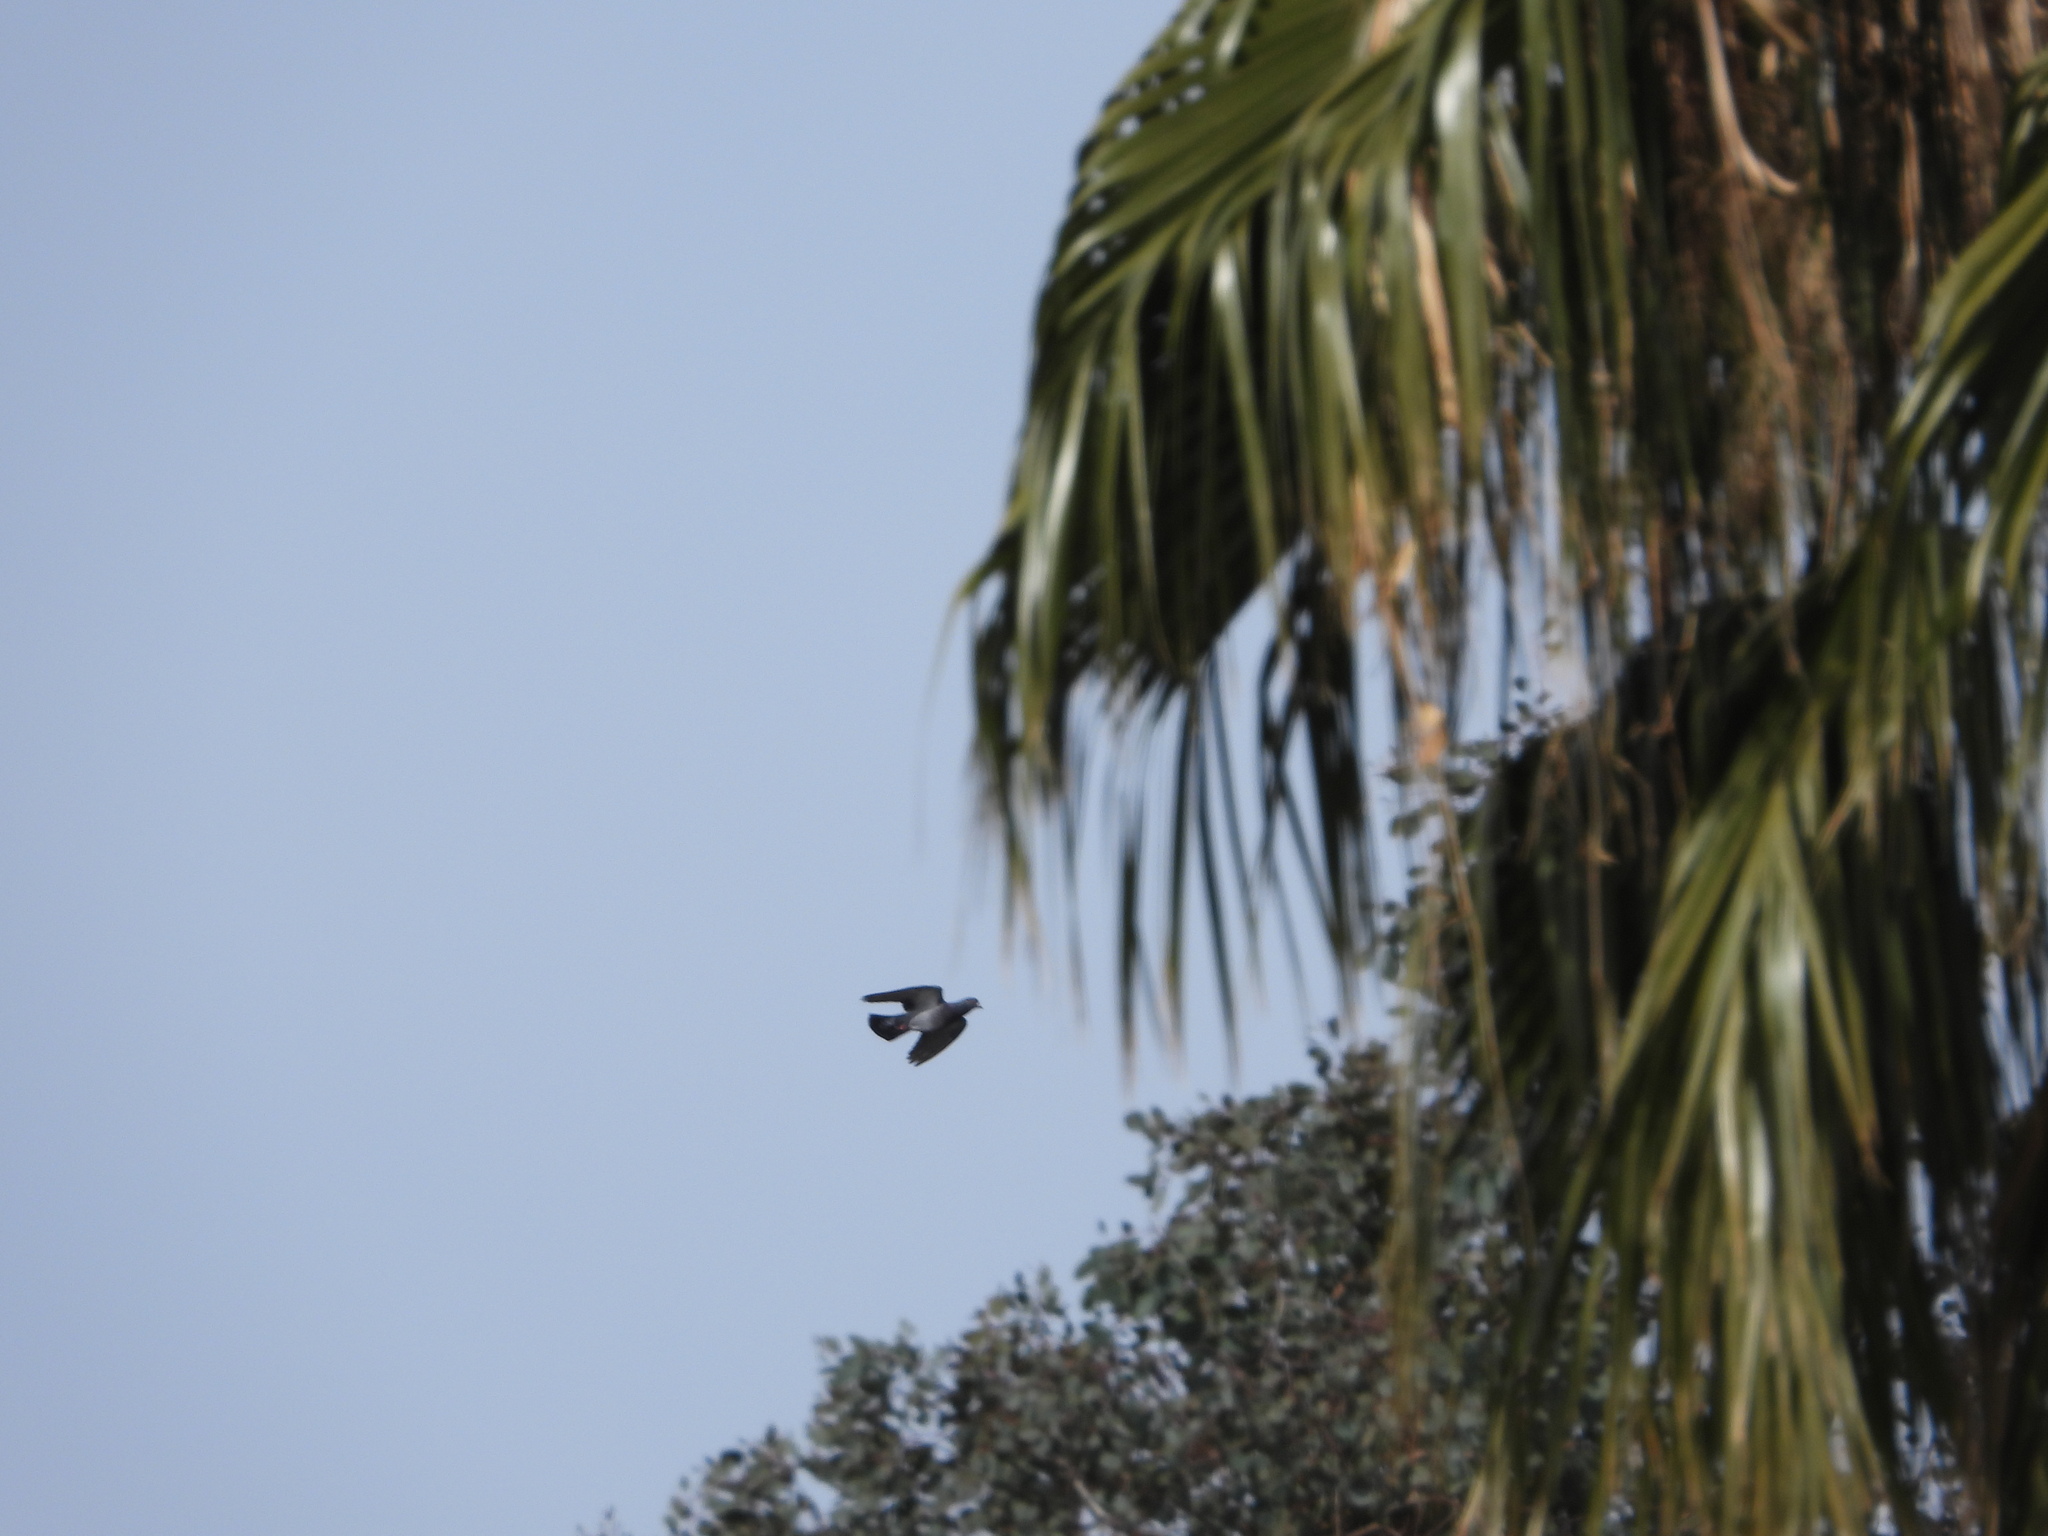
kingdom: Animalia
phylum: Chordata
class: Aves
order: Columbiformes
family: Columbidae
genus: Columba
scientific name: Columba livia
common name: Rock pigeon
